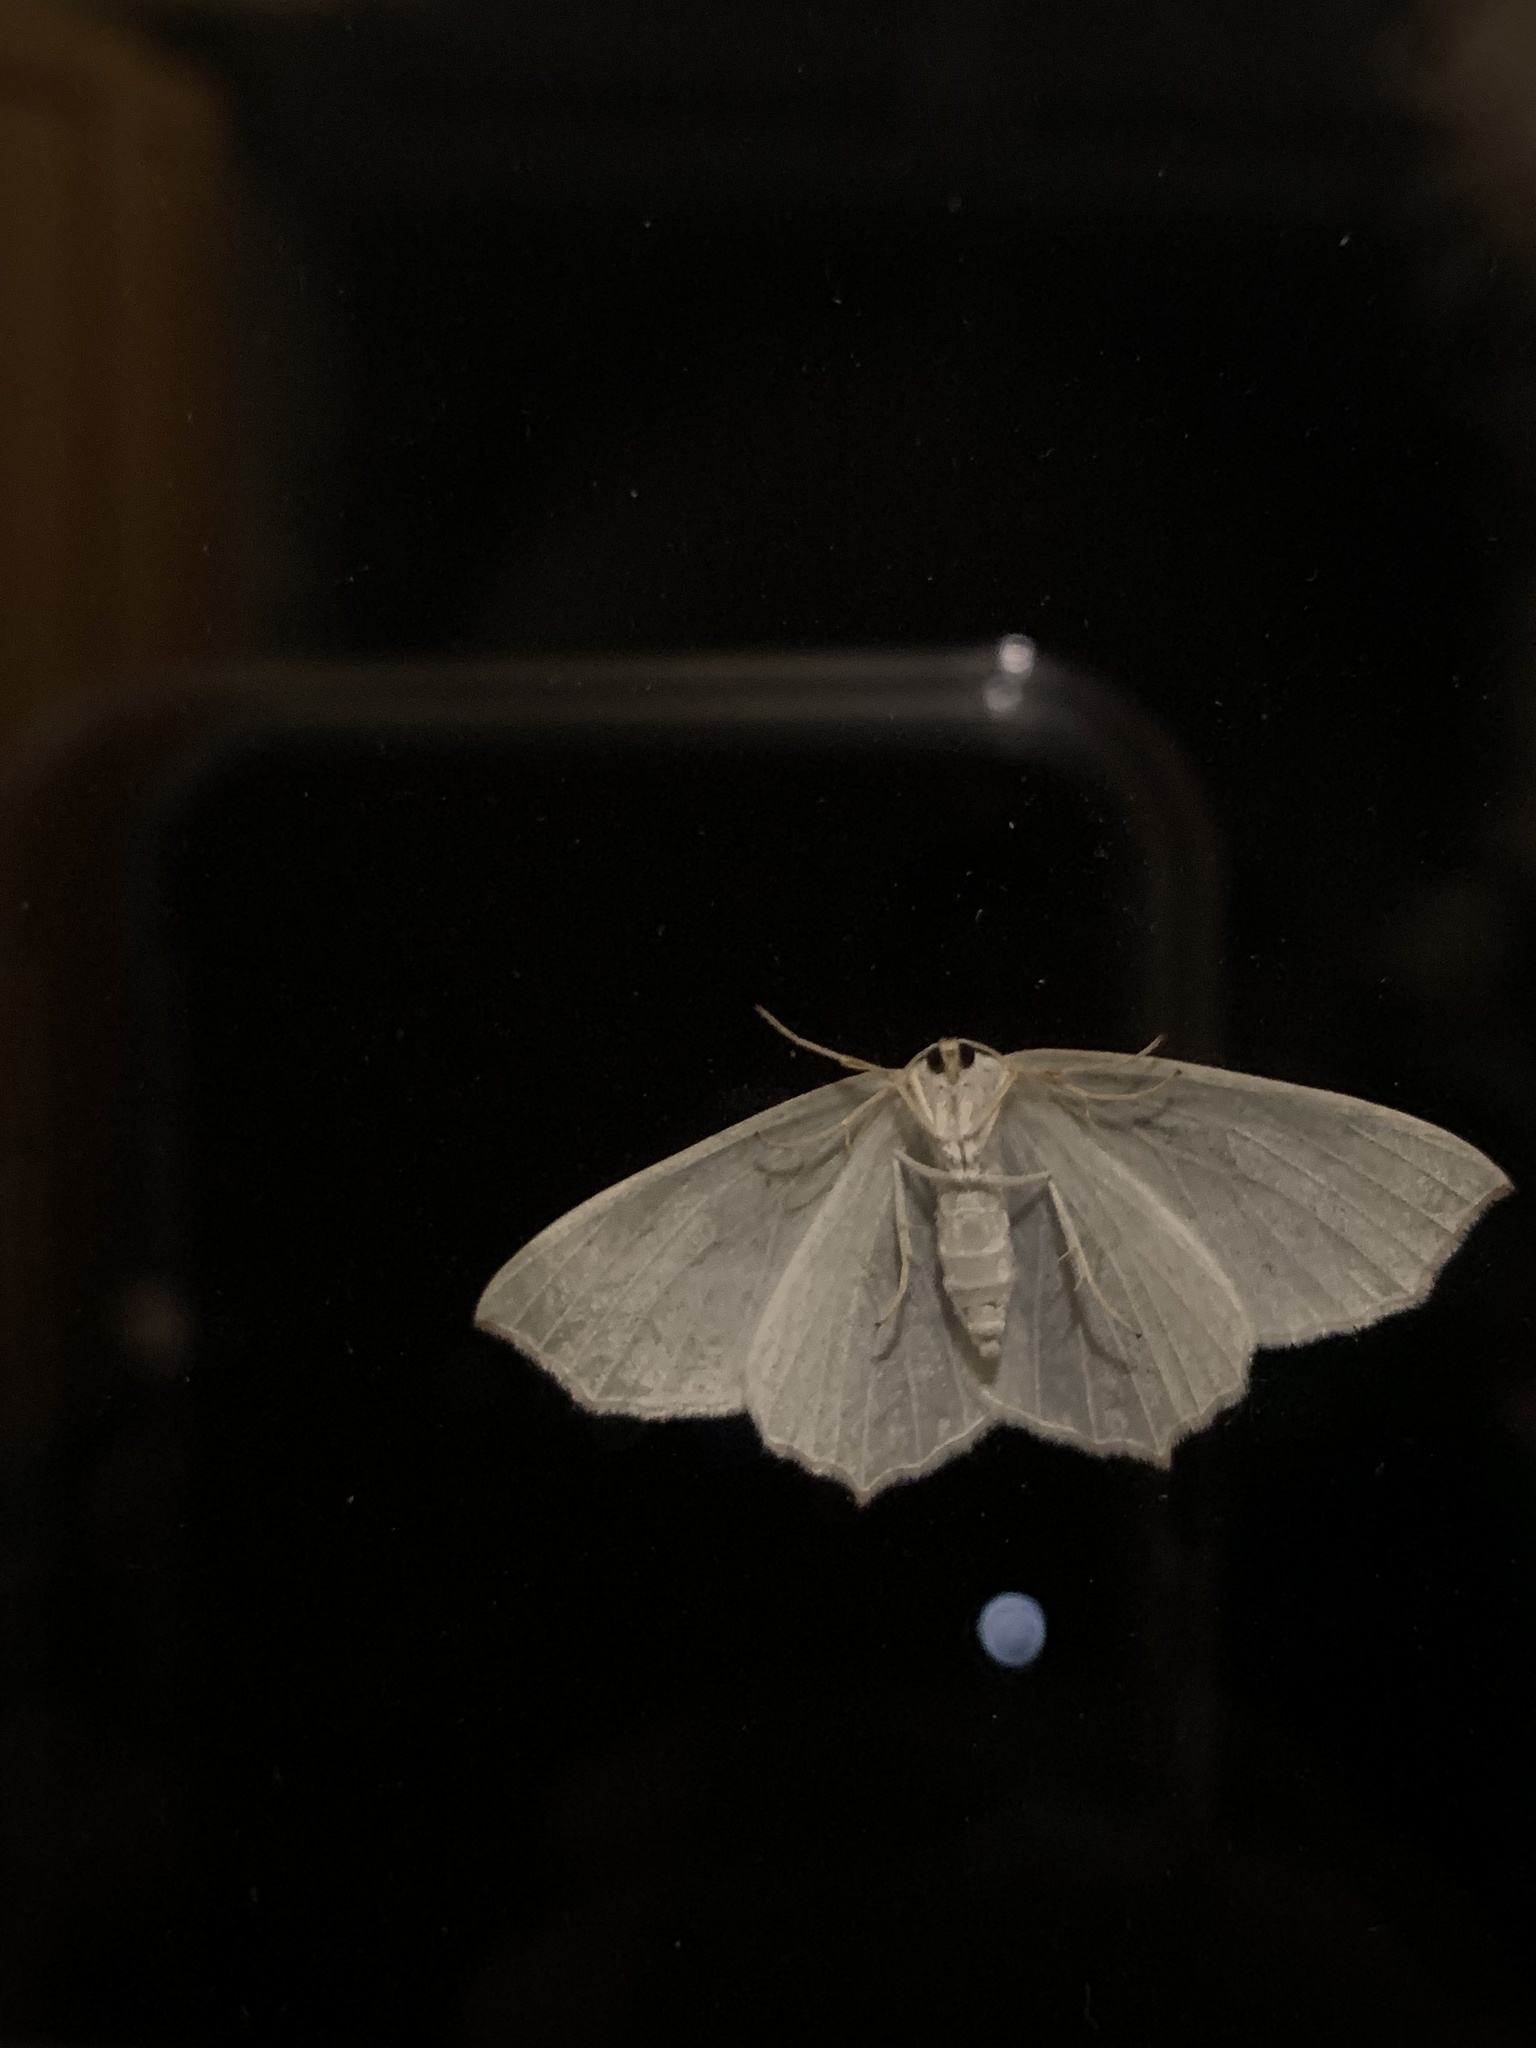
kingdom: Animalia
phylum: Arthropoda
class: Insecta
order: Lepidoptera
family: Geometridae
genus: Campaea
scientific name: Campaea margaritaria
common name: Light emerald
